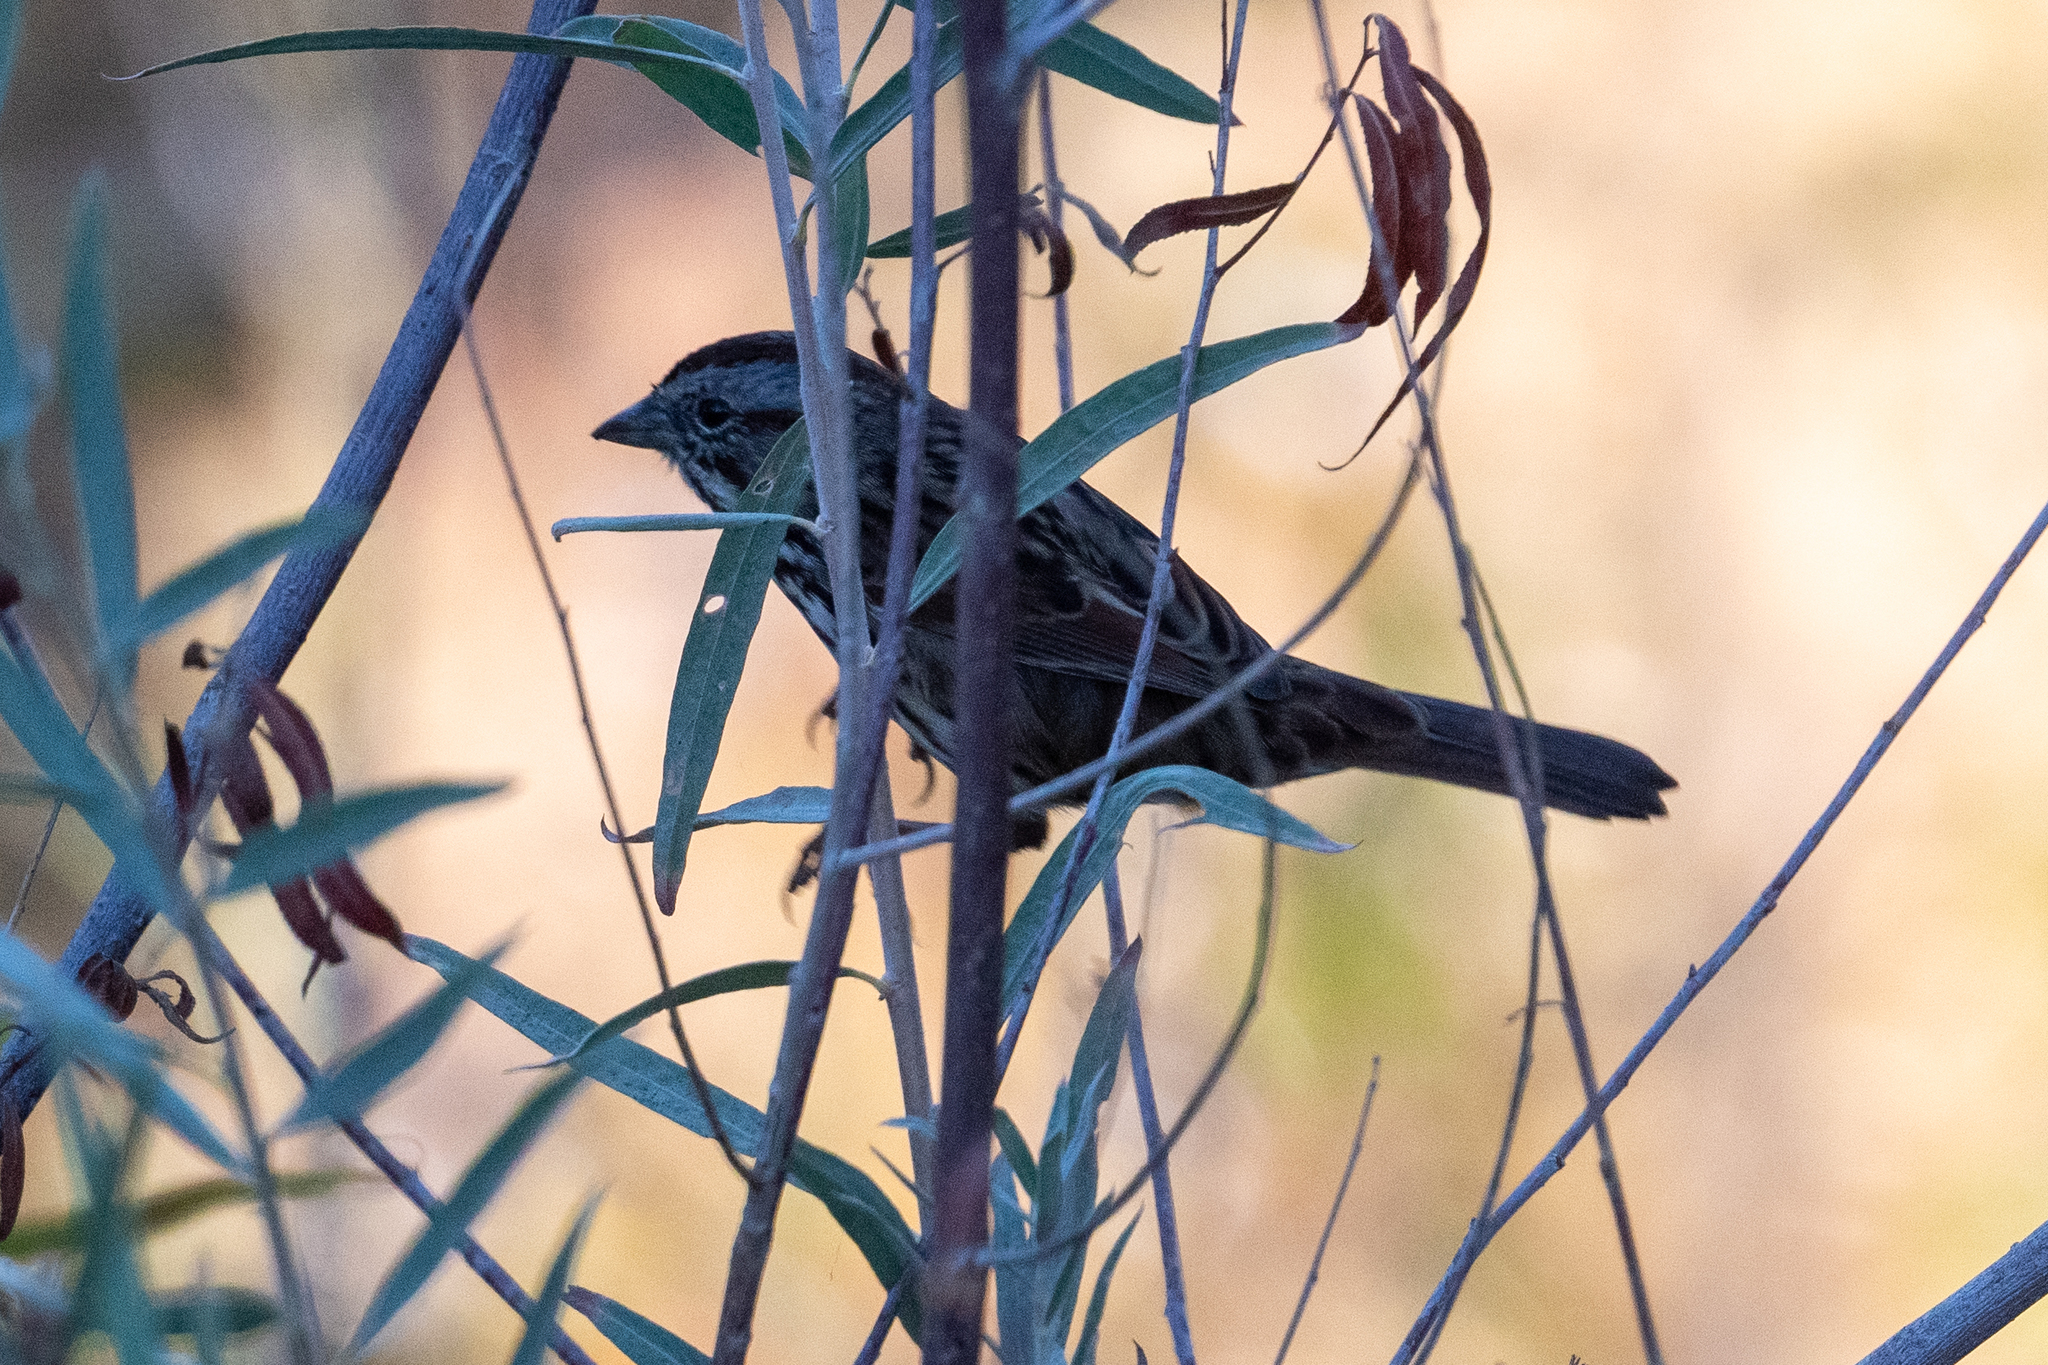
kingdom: Animalia
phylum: Chordata
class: Aves
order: Passeriformes
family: Passerellidae
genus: Melospiza
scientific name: Melospiza melodia
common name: Song sparrow
